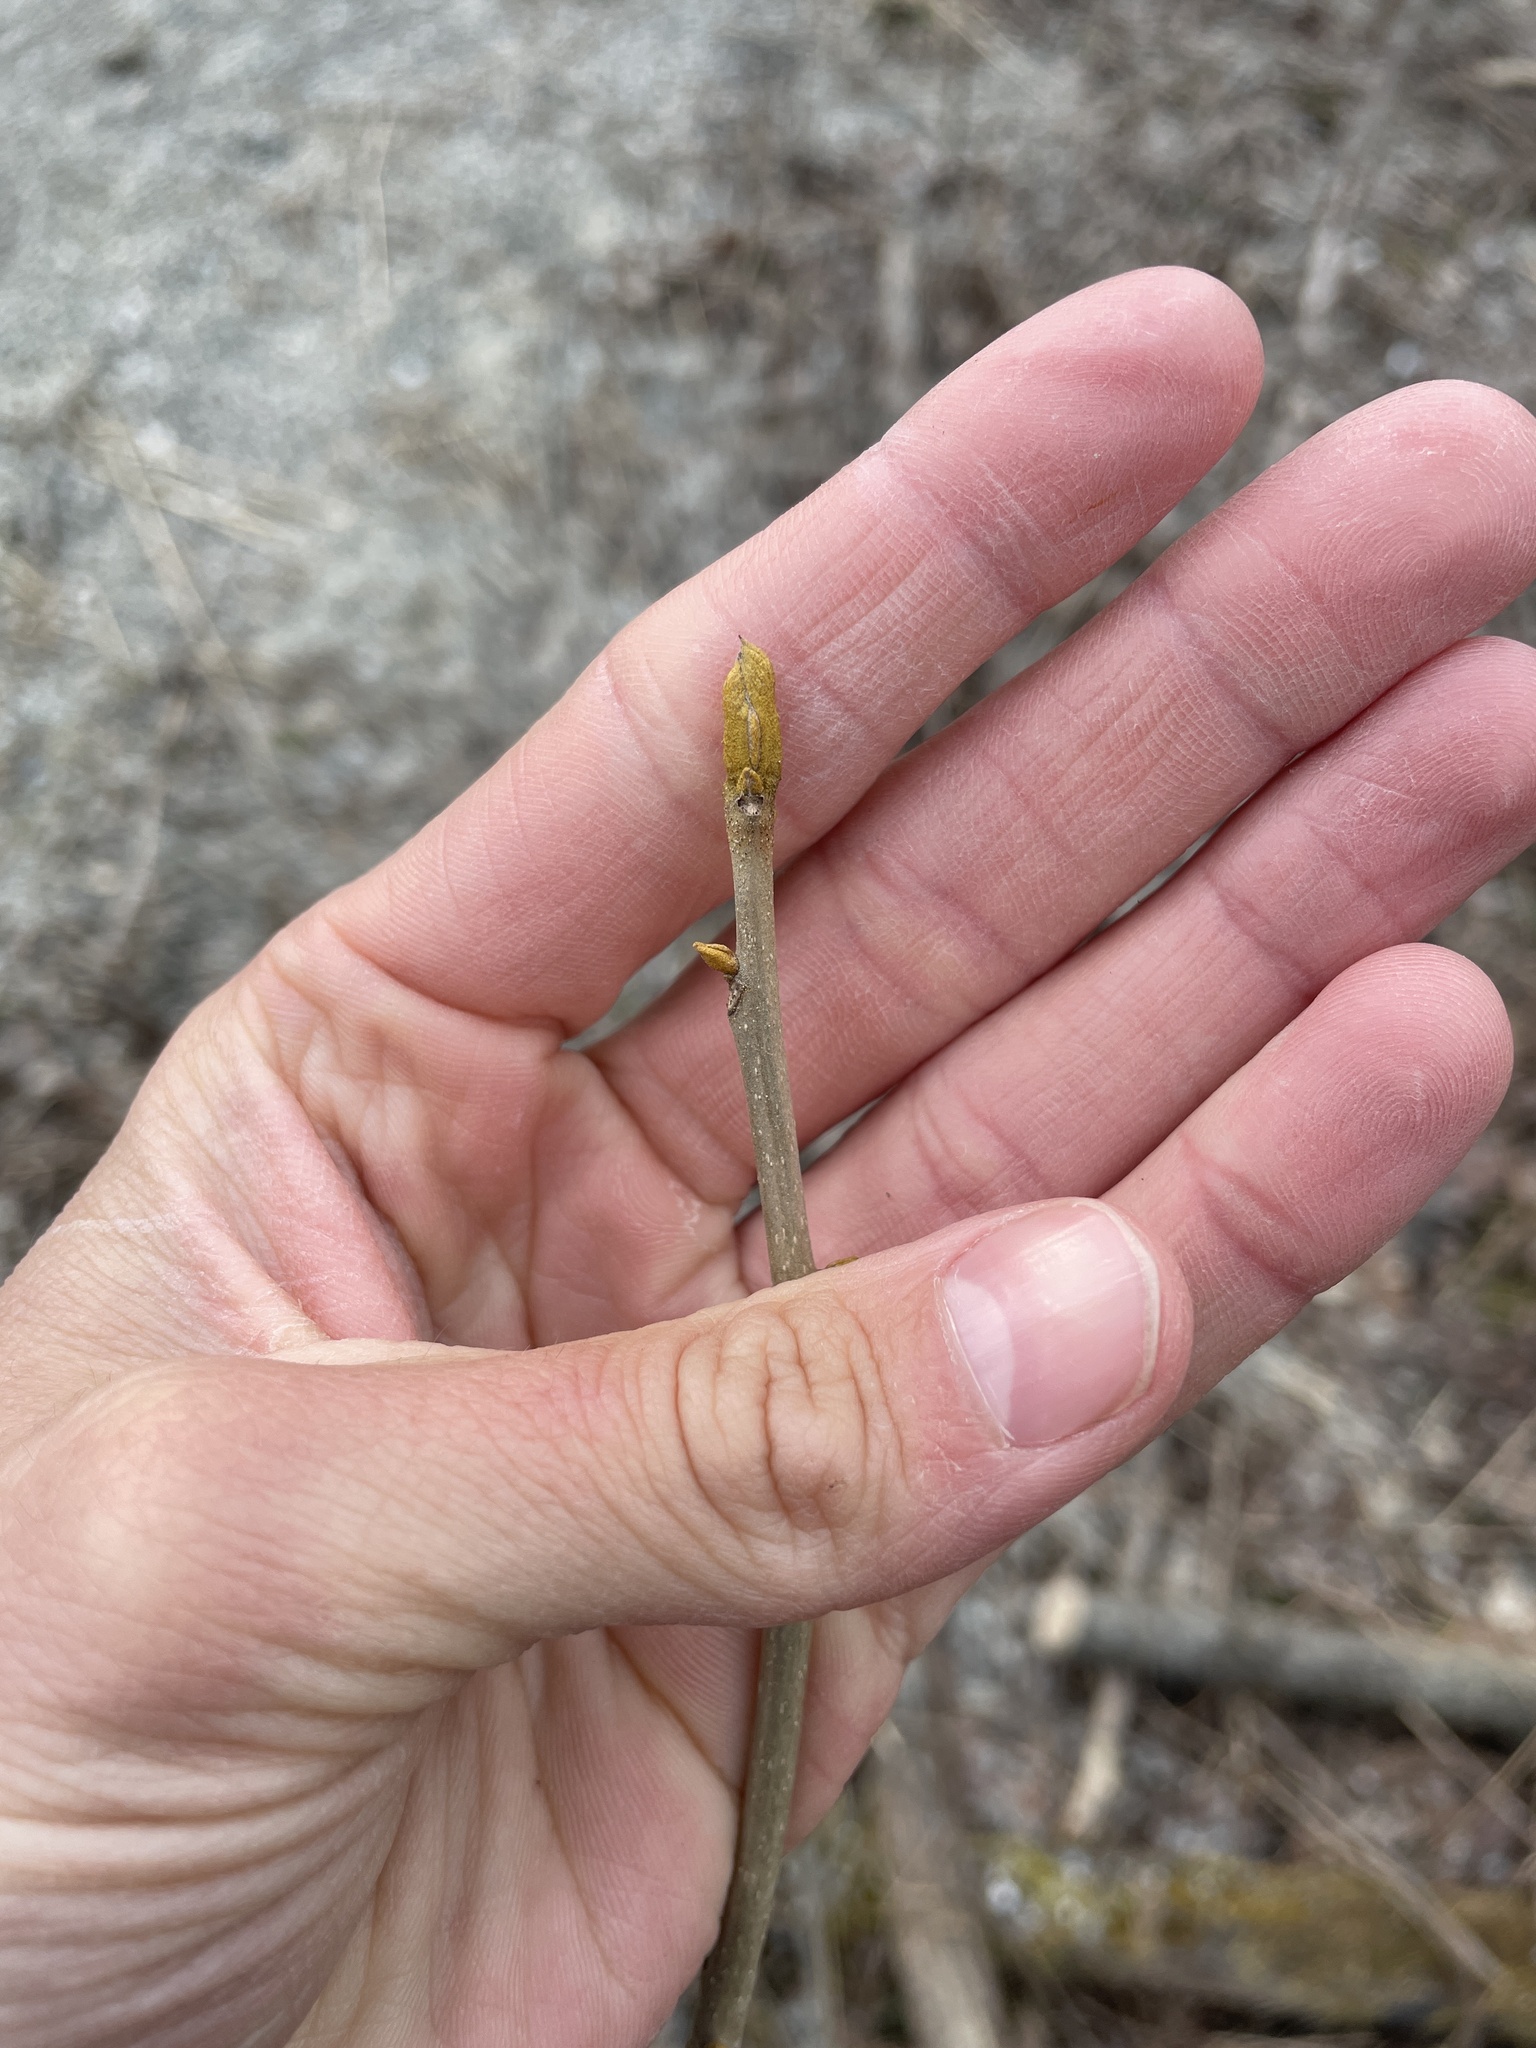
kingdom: Plantae
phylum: Tracheophyta
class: Magnoliopsida
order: Fagales
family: Juglandaceae
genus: Carya
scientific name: Carya cordiformis
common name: Bitternut hickory
